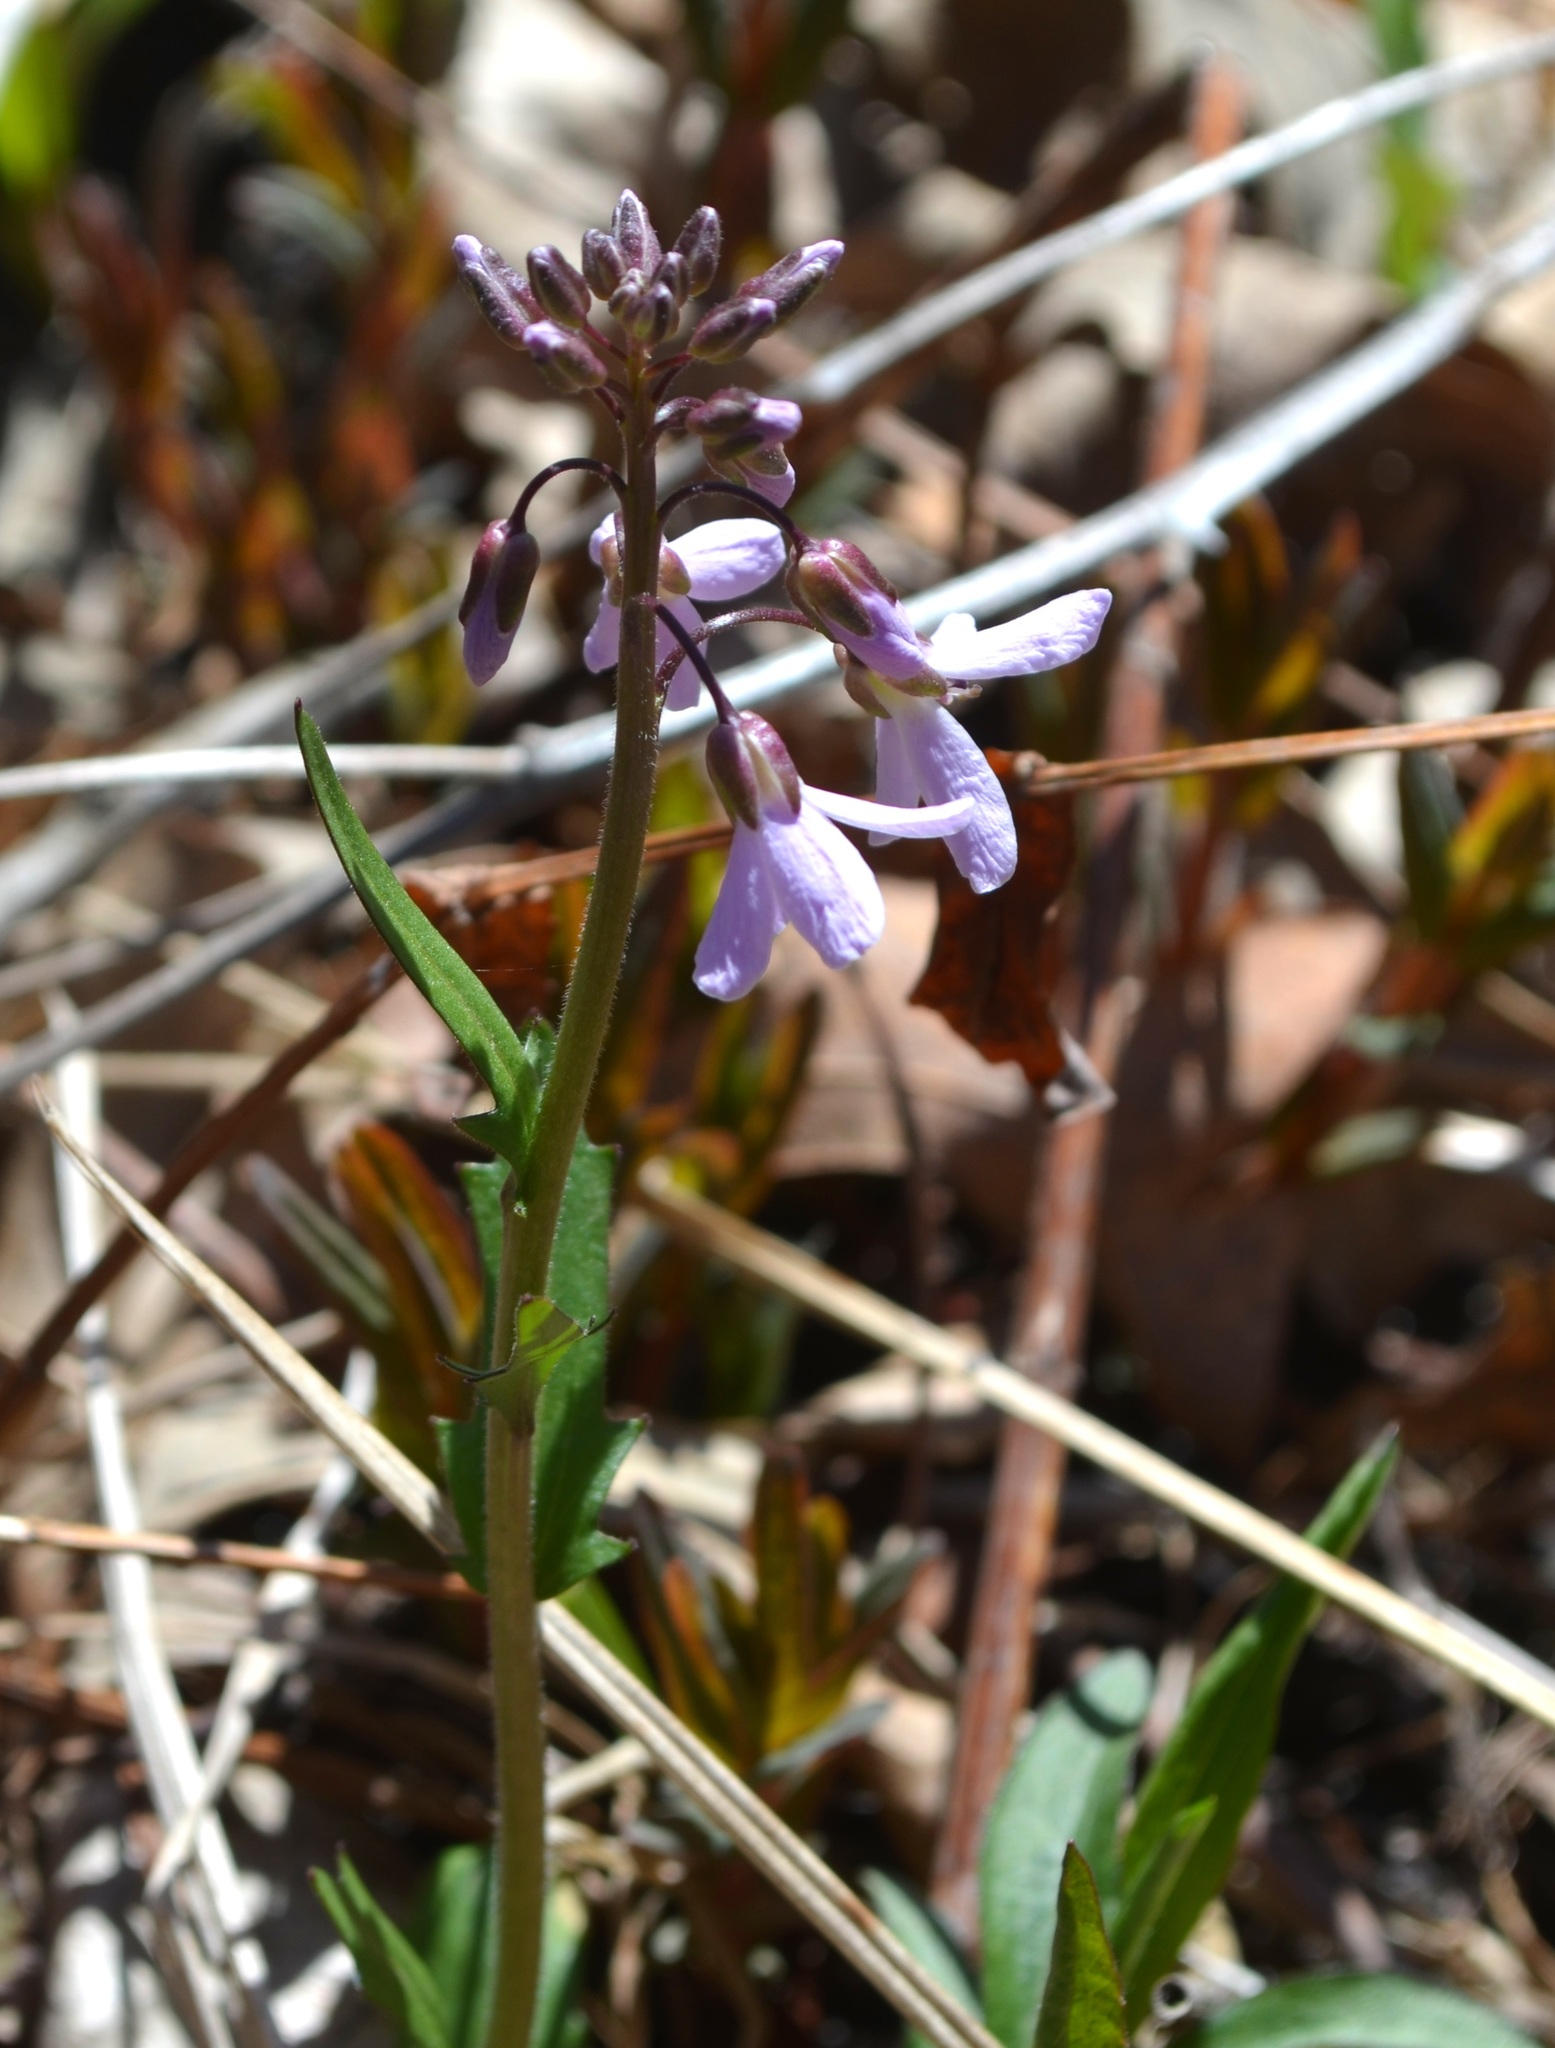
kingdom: Plantae
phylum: Tracheophyta
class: Magnoliopsida
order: Brassicales
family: Brassicaceae
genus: Cardamine
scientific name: Cardamine douglassii
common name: Purple cress
